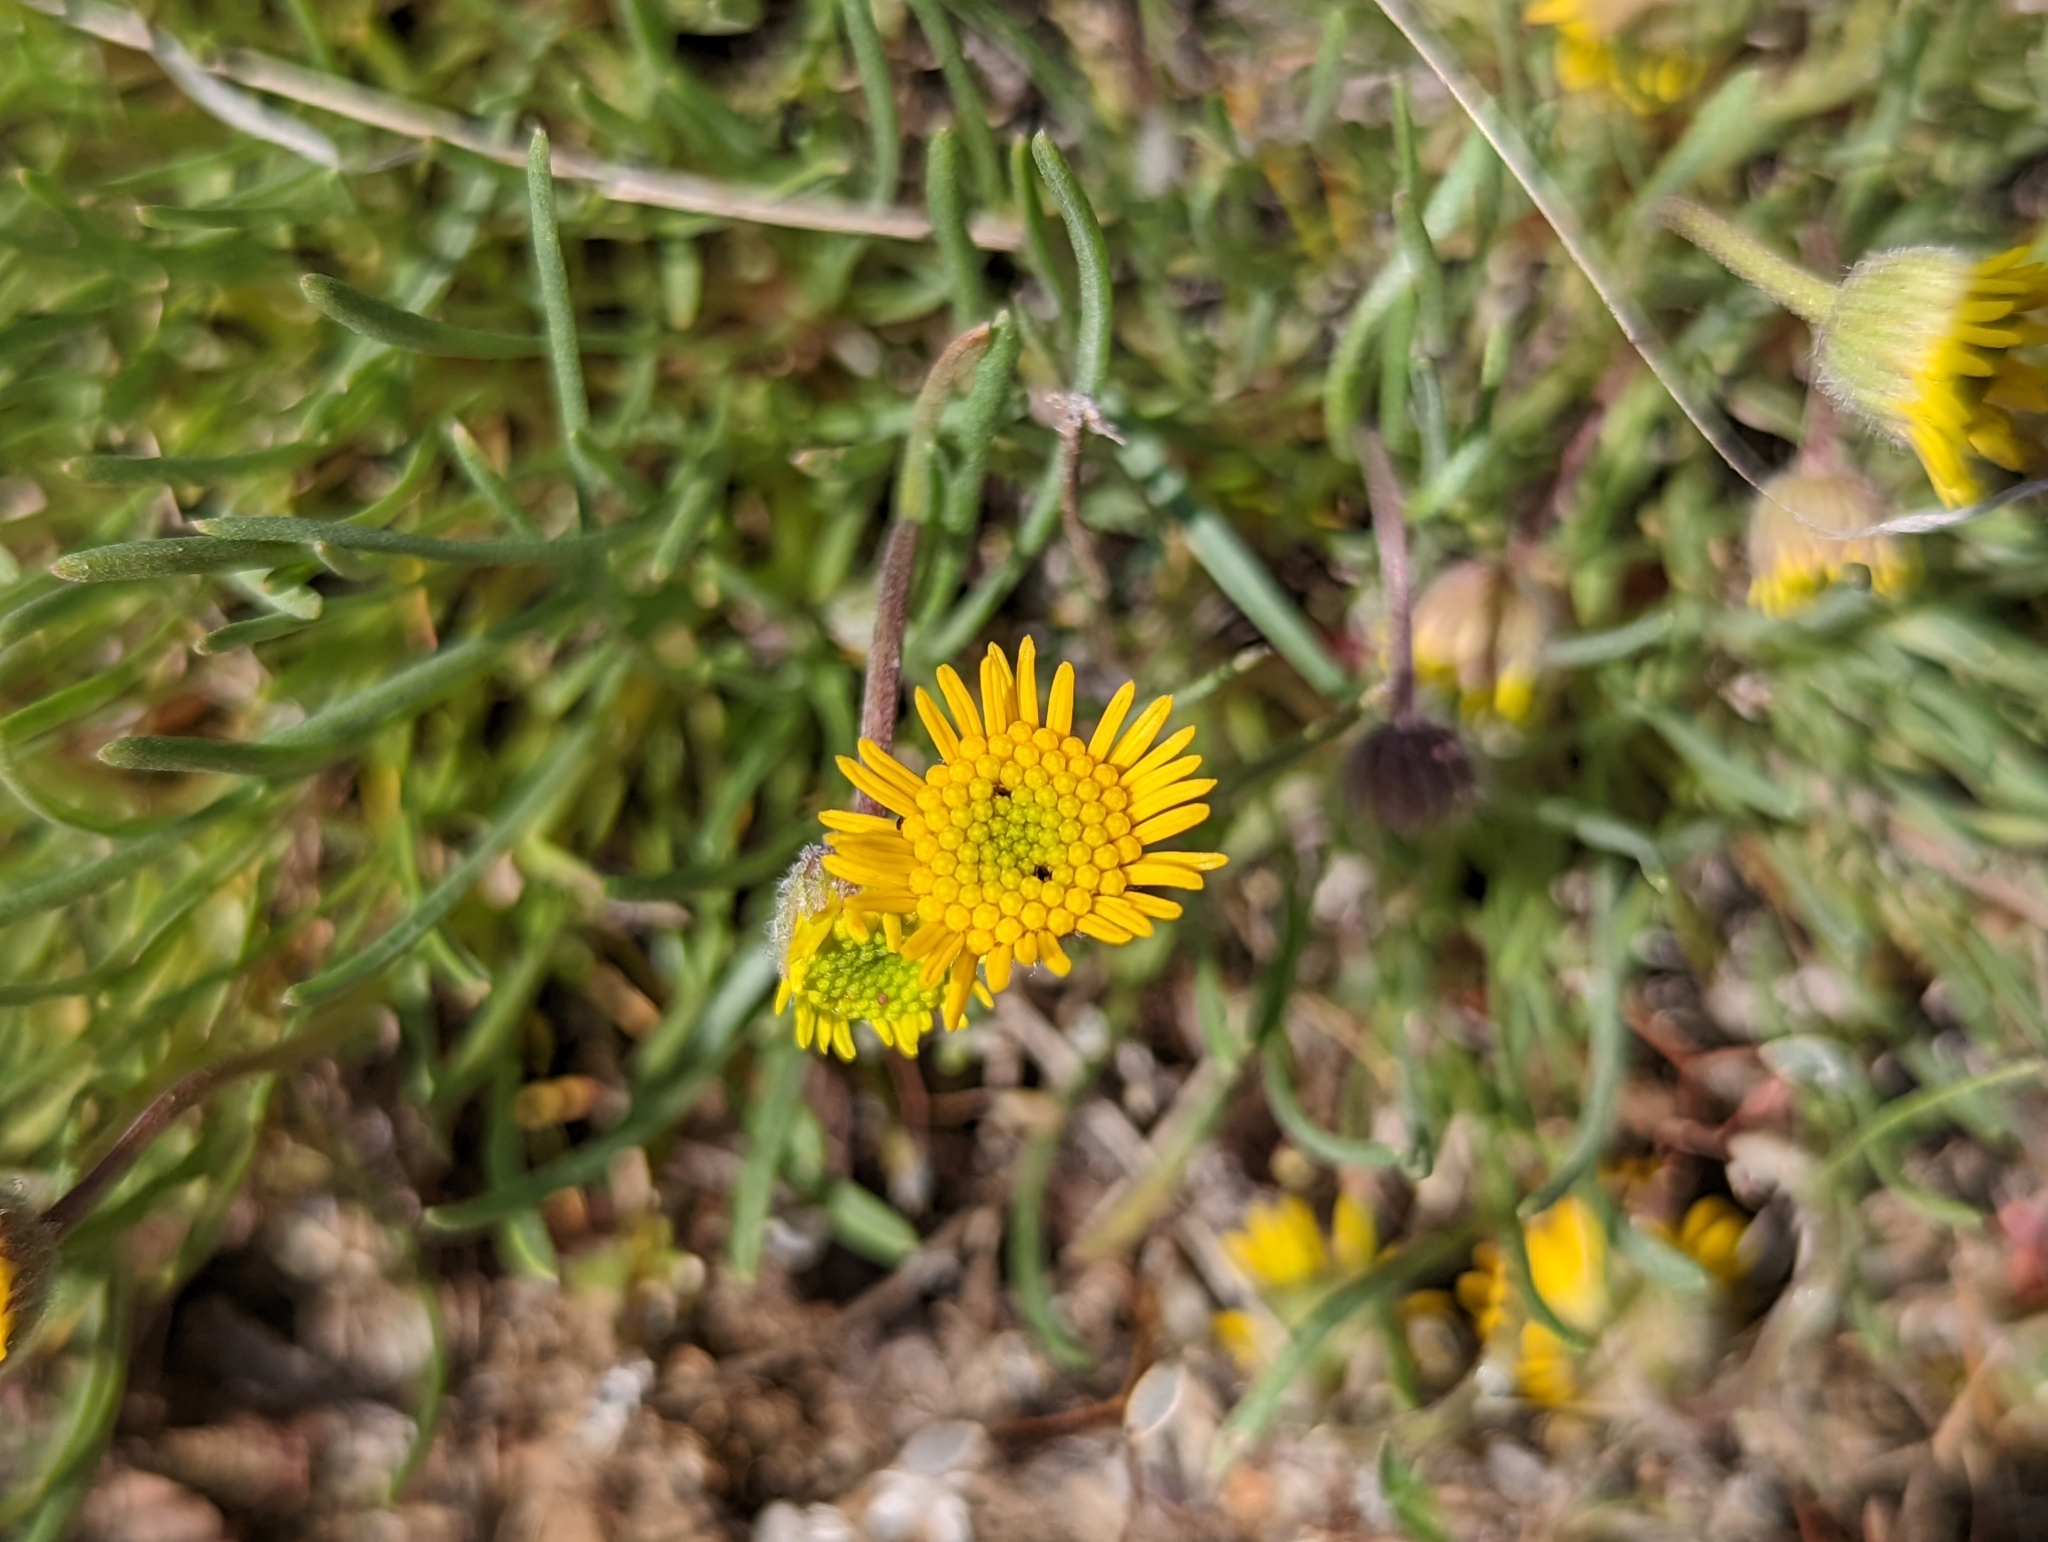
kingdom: Plantae
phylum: Tracheophyta
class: Magnoliopsida
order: Asterales
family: Asteraceae
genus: Erigeron
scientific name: Erigeron linearis
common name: Desert yellow fleabane
